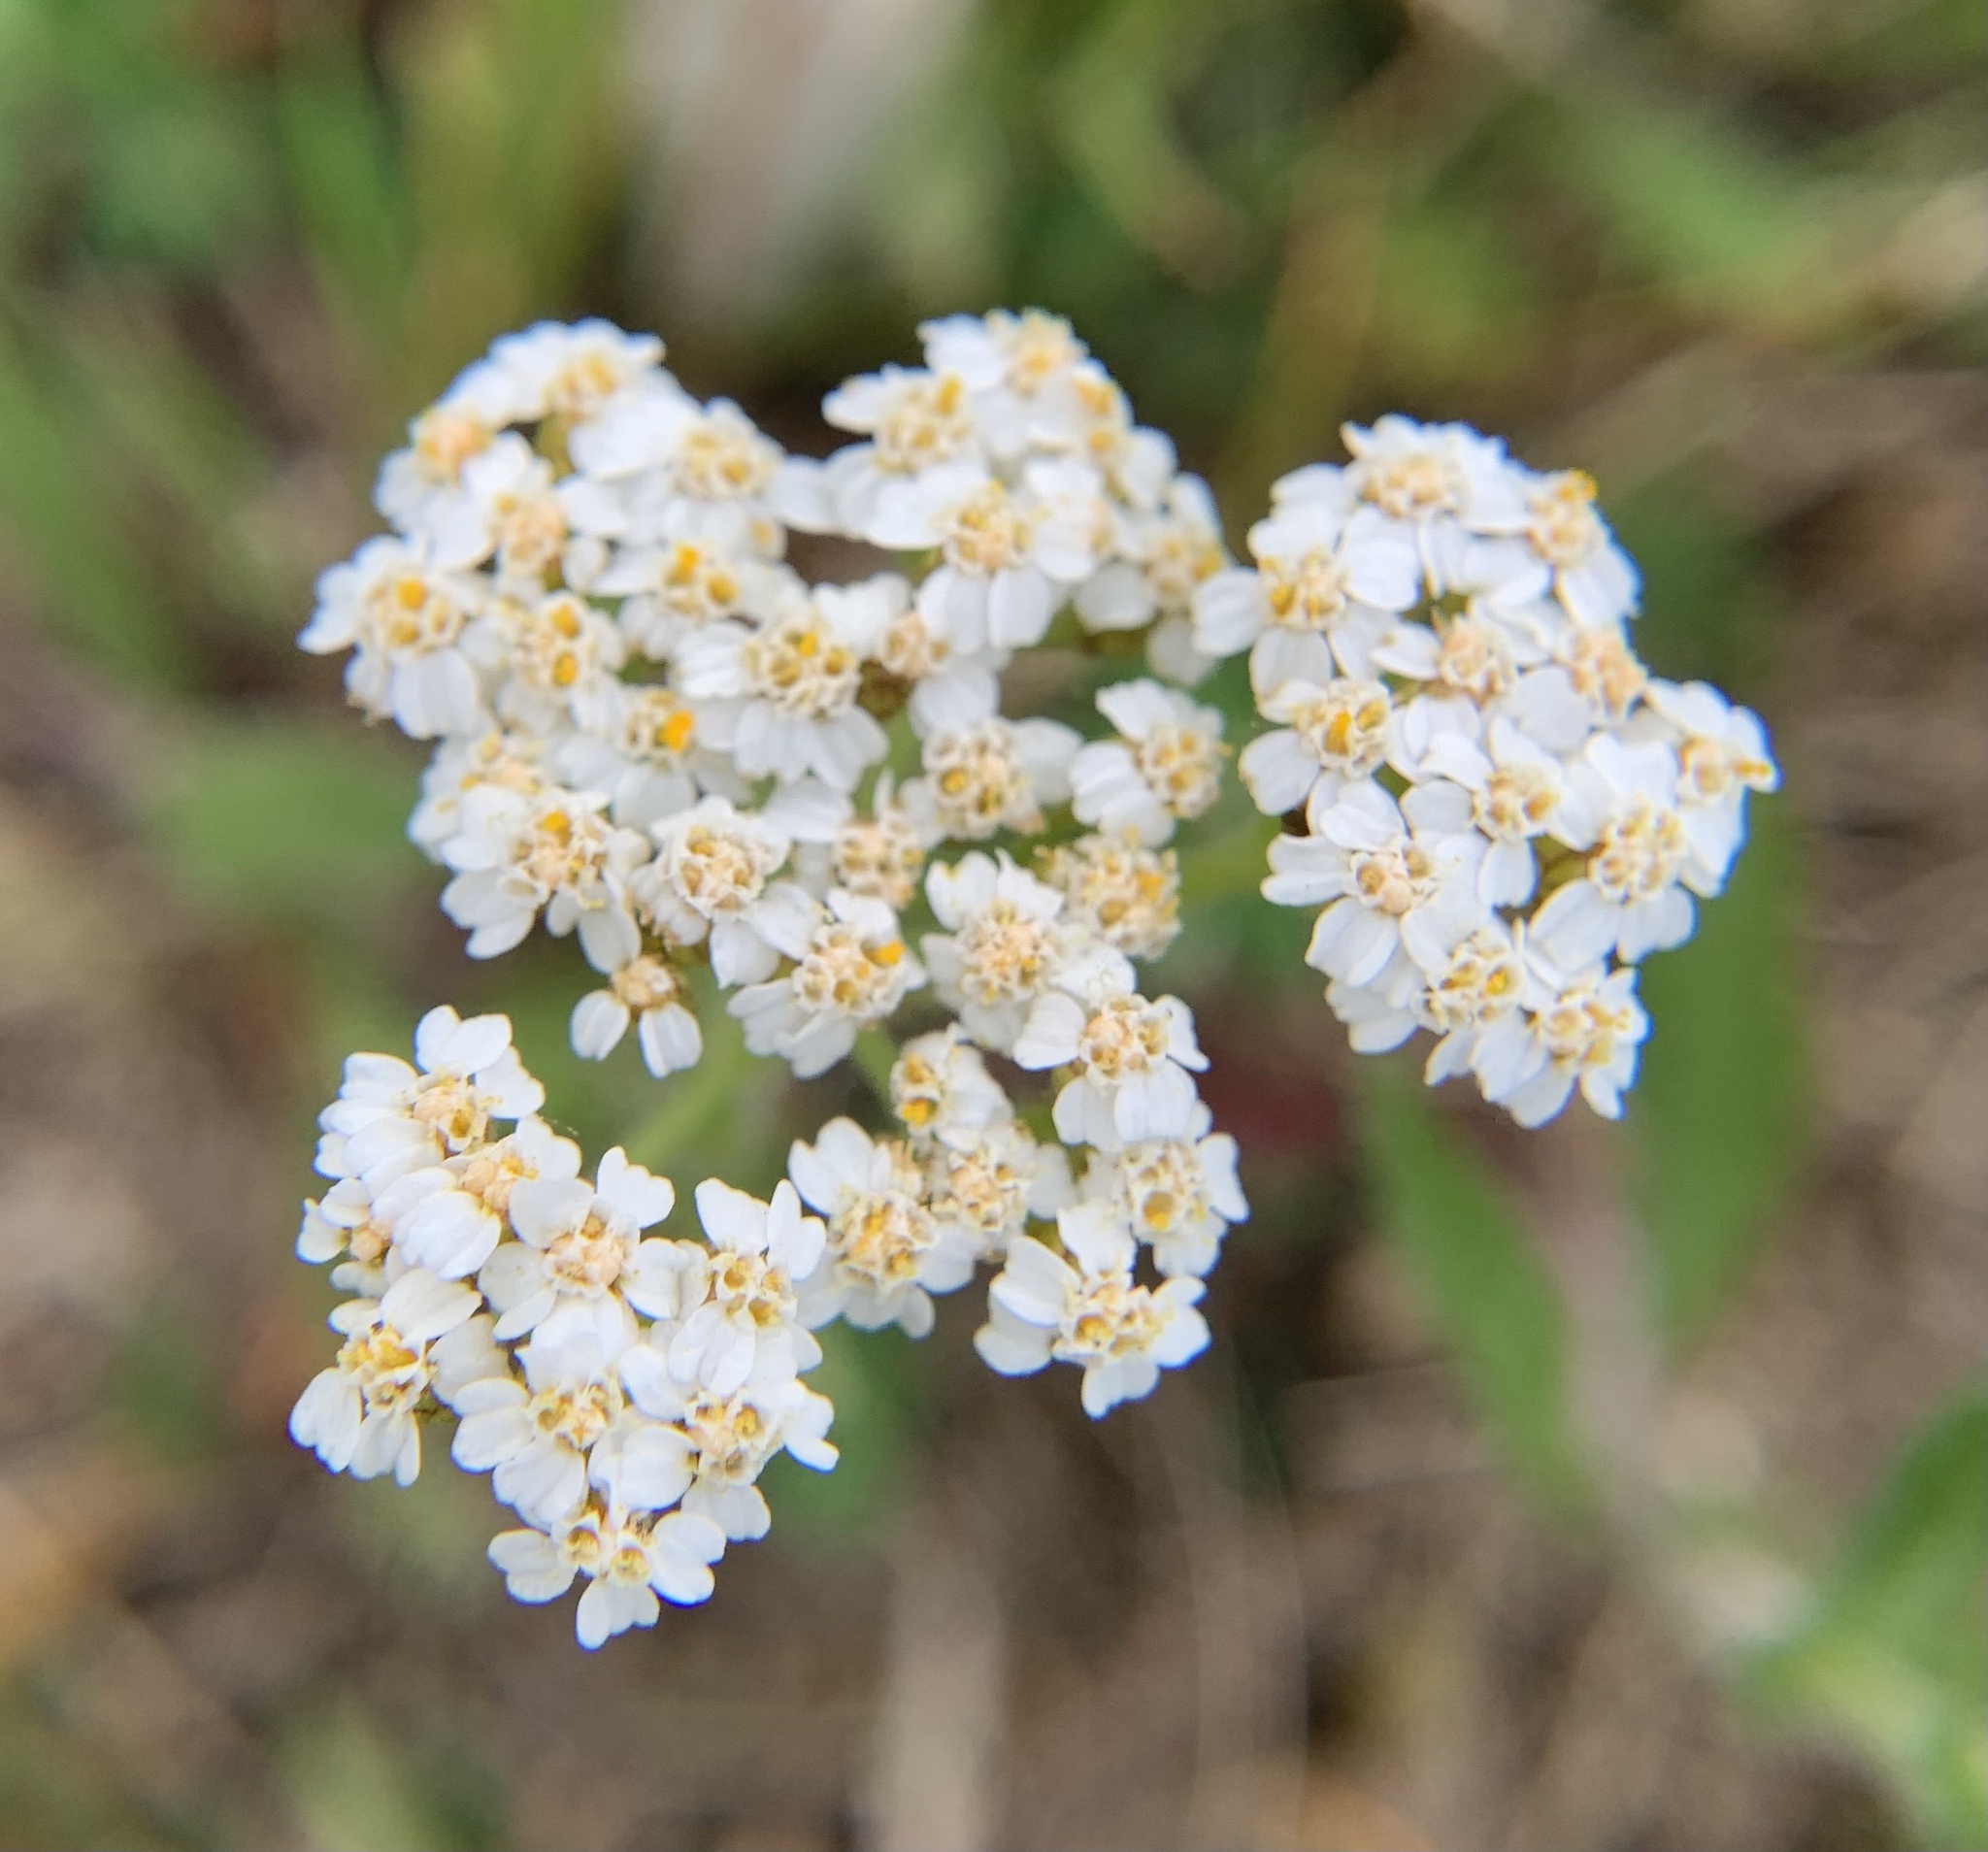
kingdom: Plantae
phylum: Tracheophyta
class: Magnoliopsida
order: Asterales
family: Asteraceae
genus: Achillea
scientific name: Achillea millefolium
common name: Yarrow
